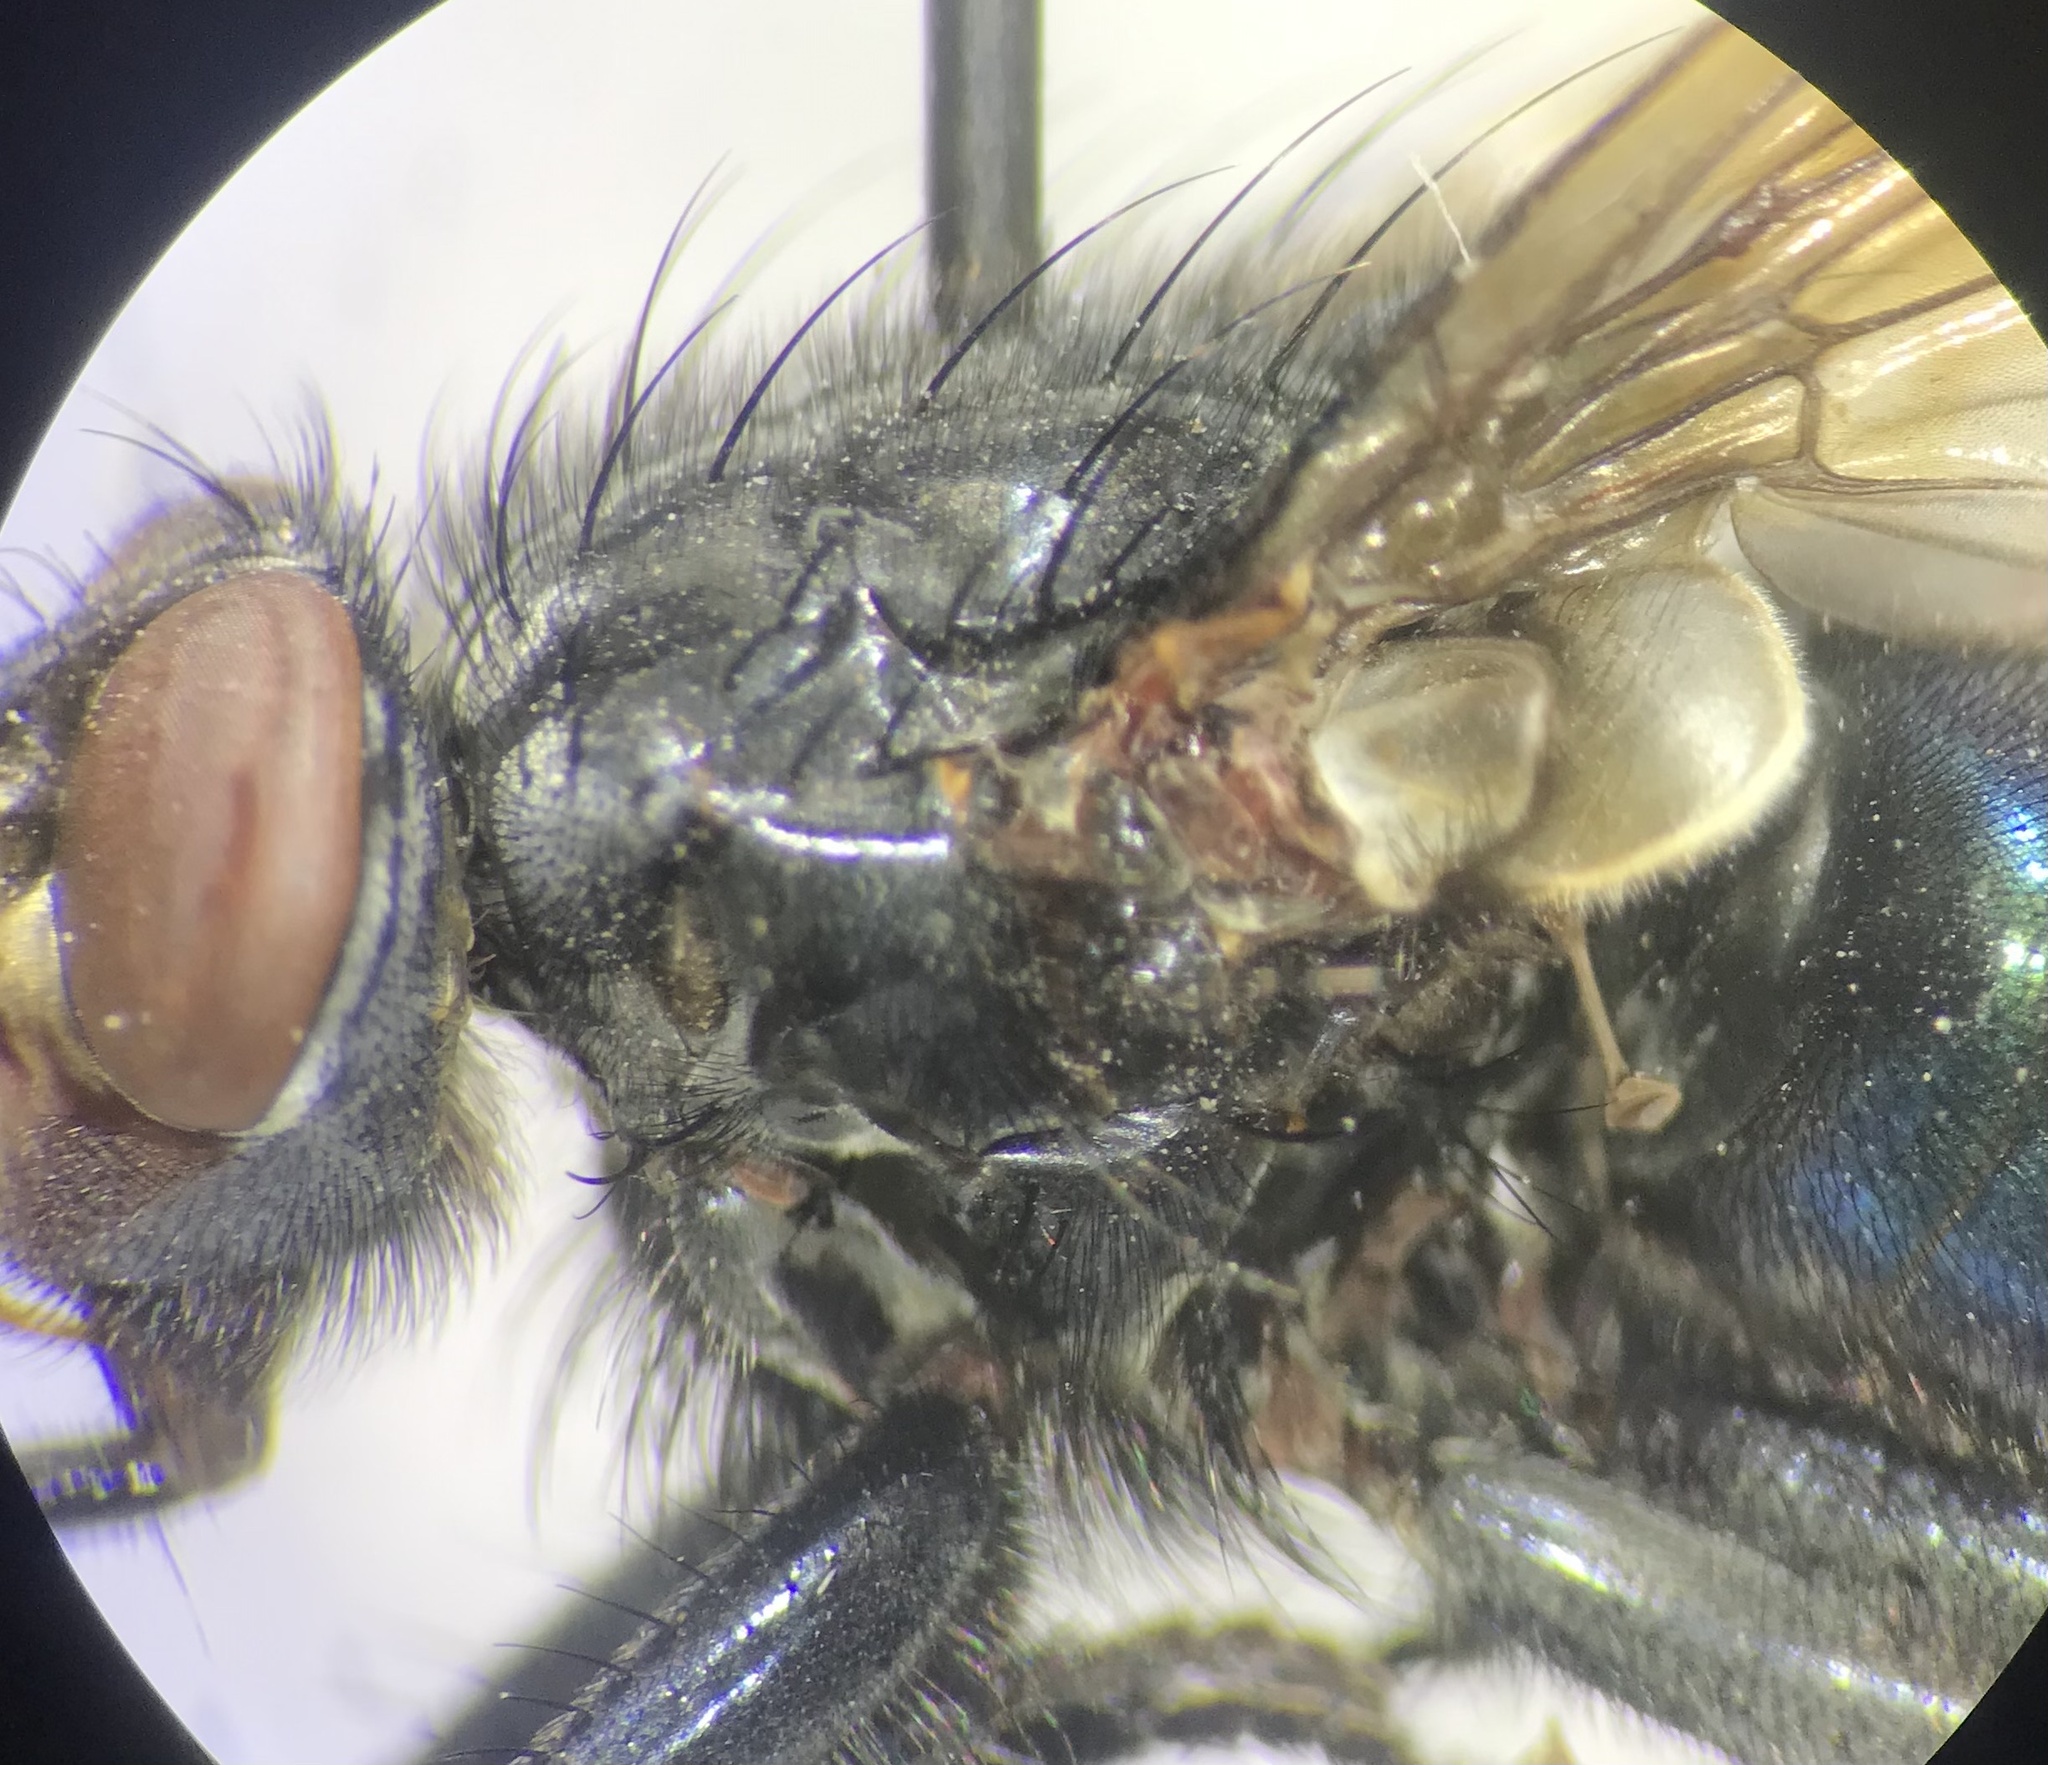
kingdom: Animalia
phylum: Arthropoda
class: Insecta
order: Diptera
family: Calliphoridae
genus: Cynomya
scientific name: Cynomya cadaverina
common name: Shiny blue bottle fly
